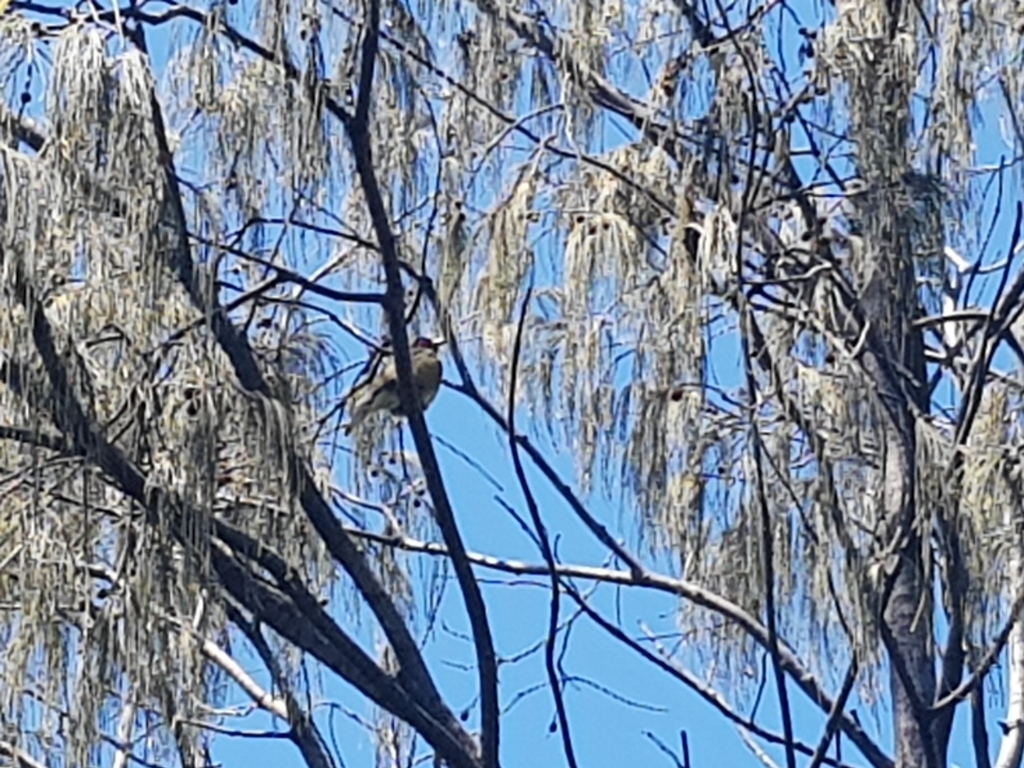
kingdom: Animalia
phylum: Chordata
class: Aves
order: Passeriformes
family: Oriolidae
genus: Sphecotheres
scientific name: Sphecotheres vieilloti
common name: Australasian figbird
